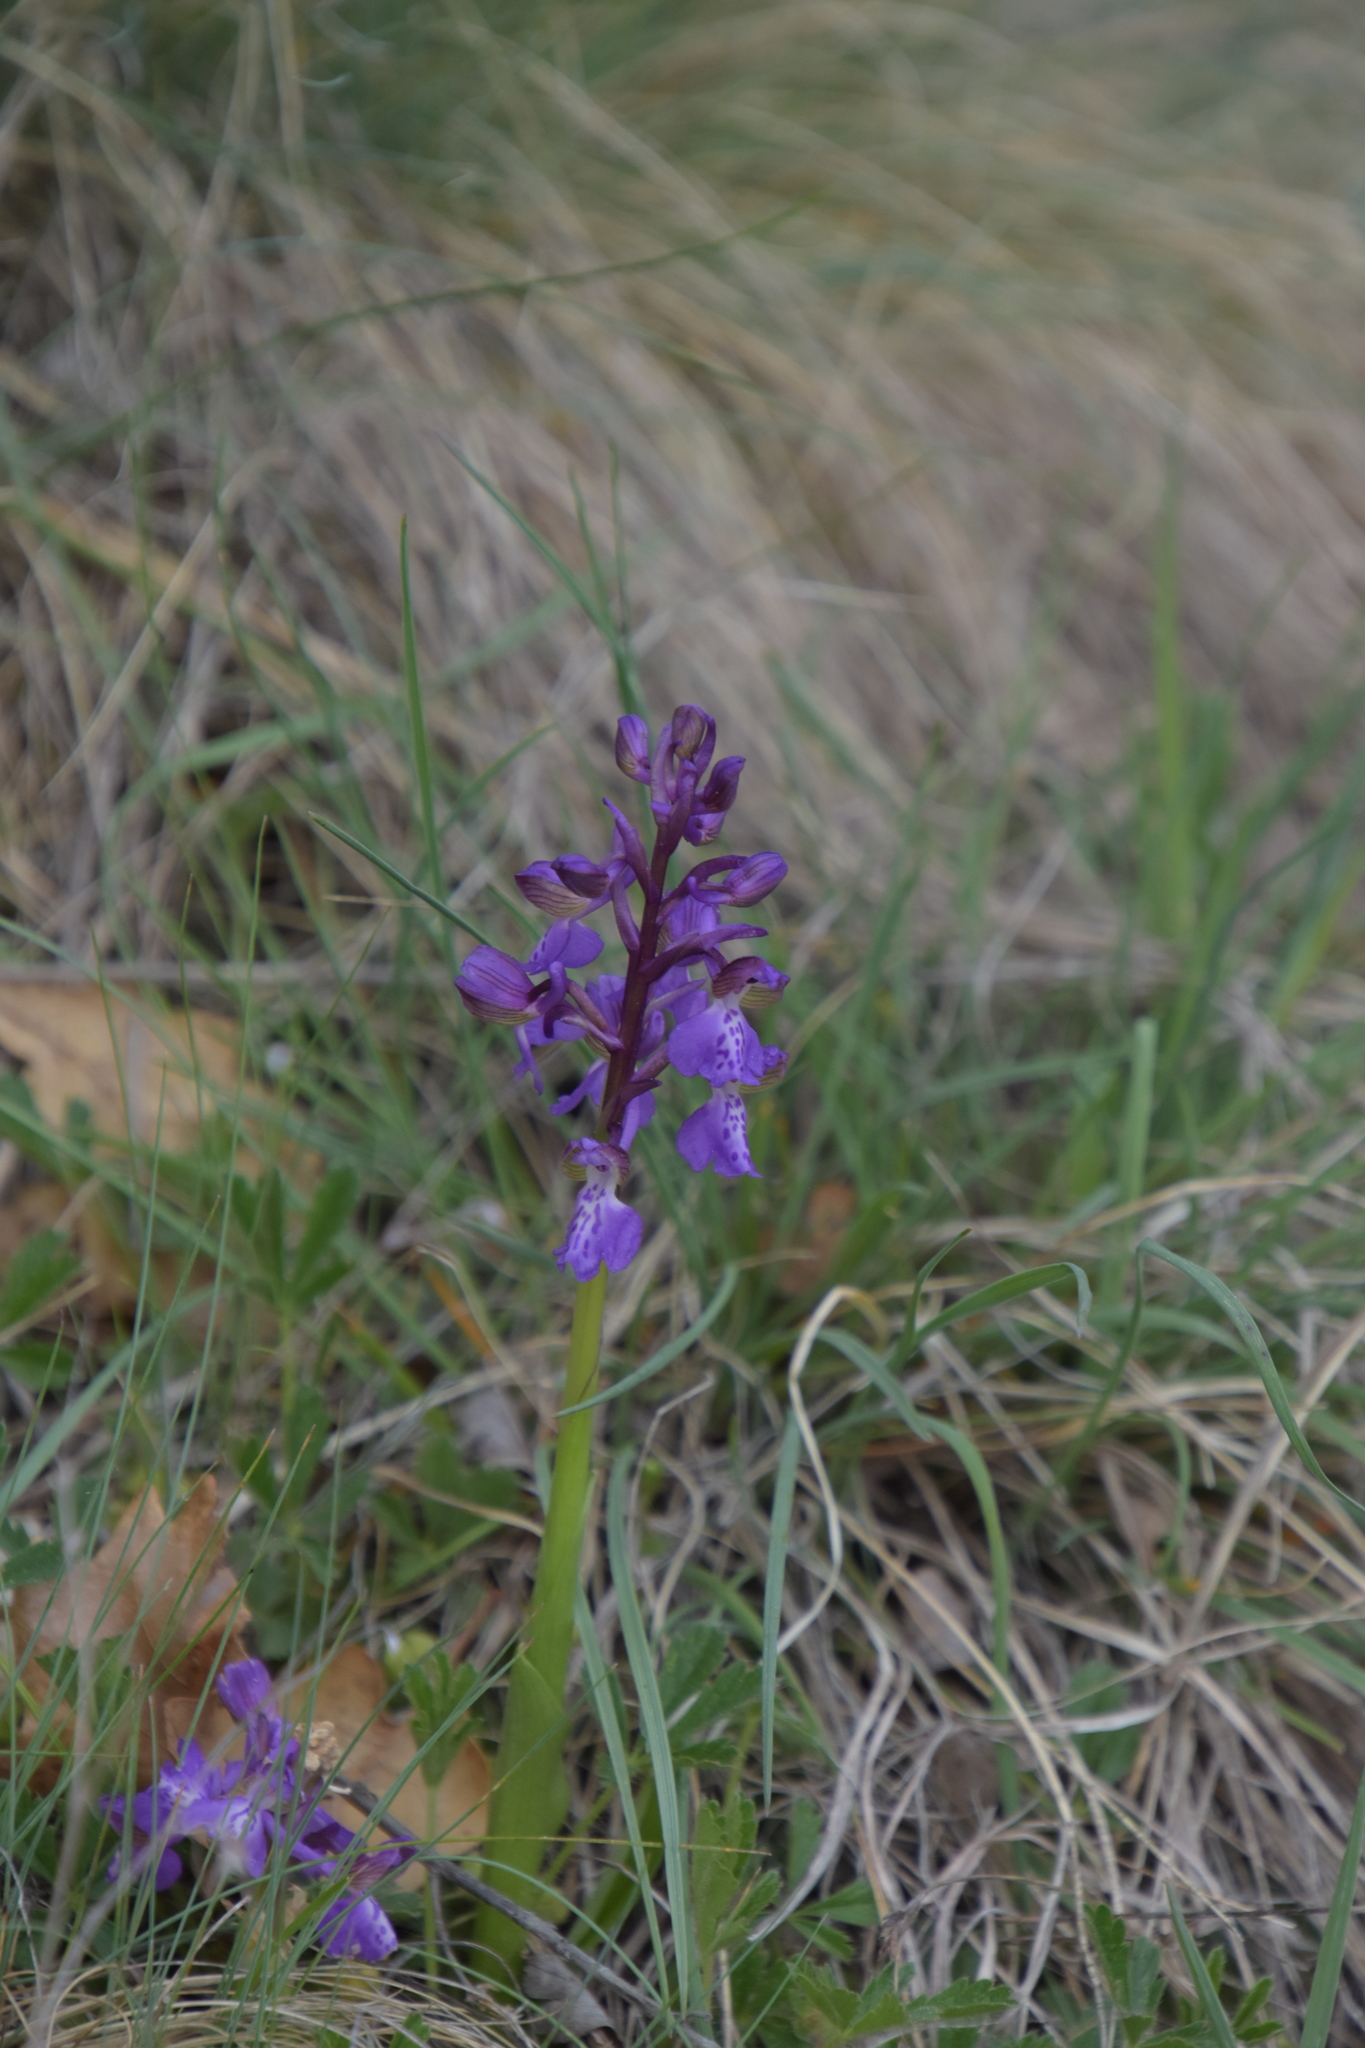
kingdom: Plantae
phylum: Tracheophyta
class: Liliopsida
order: Asparagales
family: Orchidaceae
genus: Anacamptis
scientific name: Anacamptis morio
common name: Green-winged orchid
